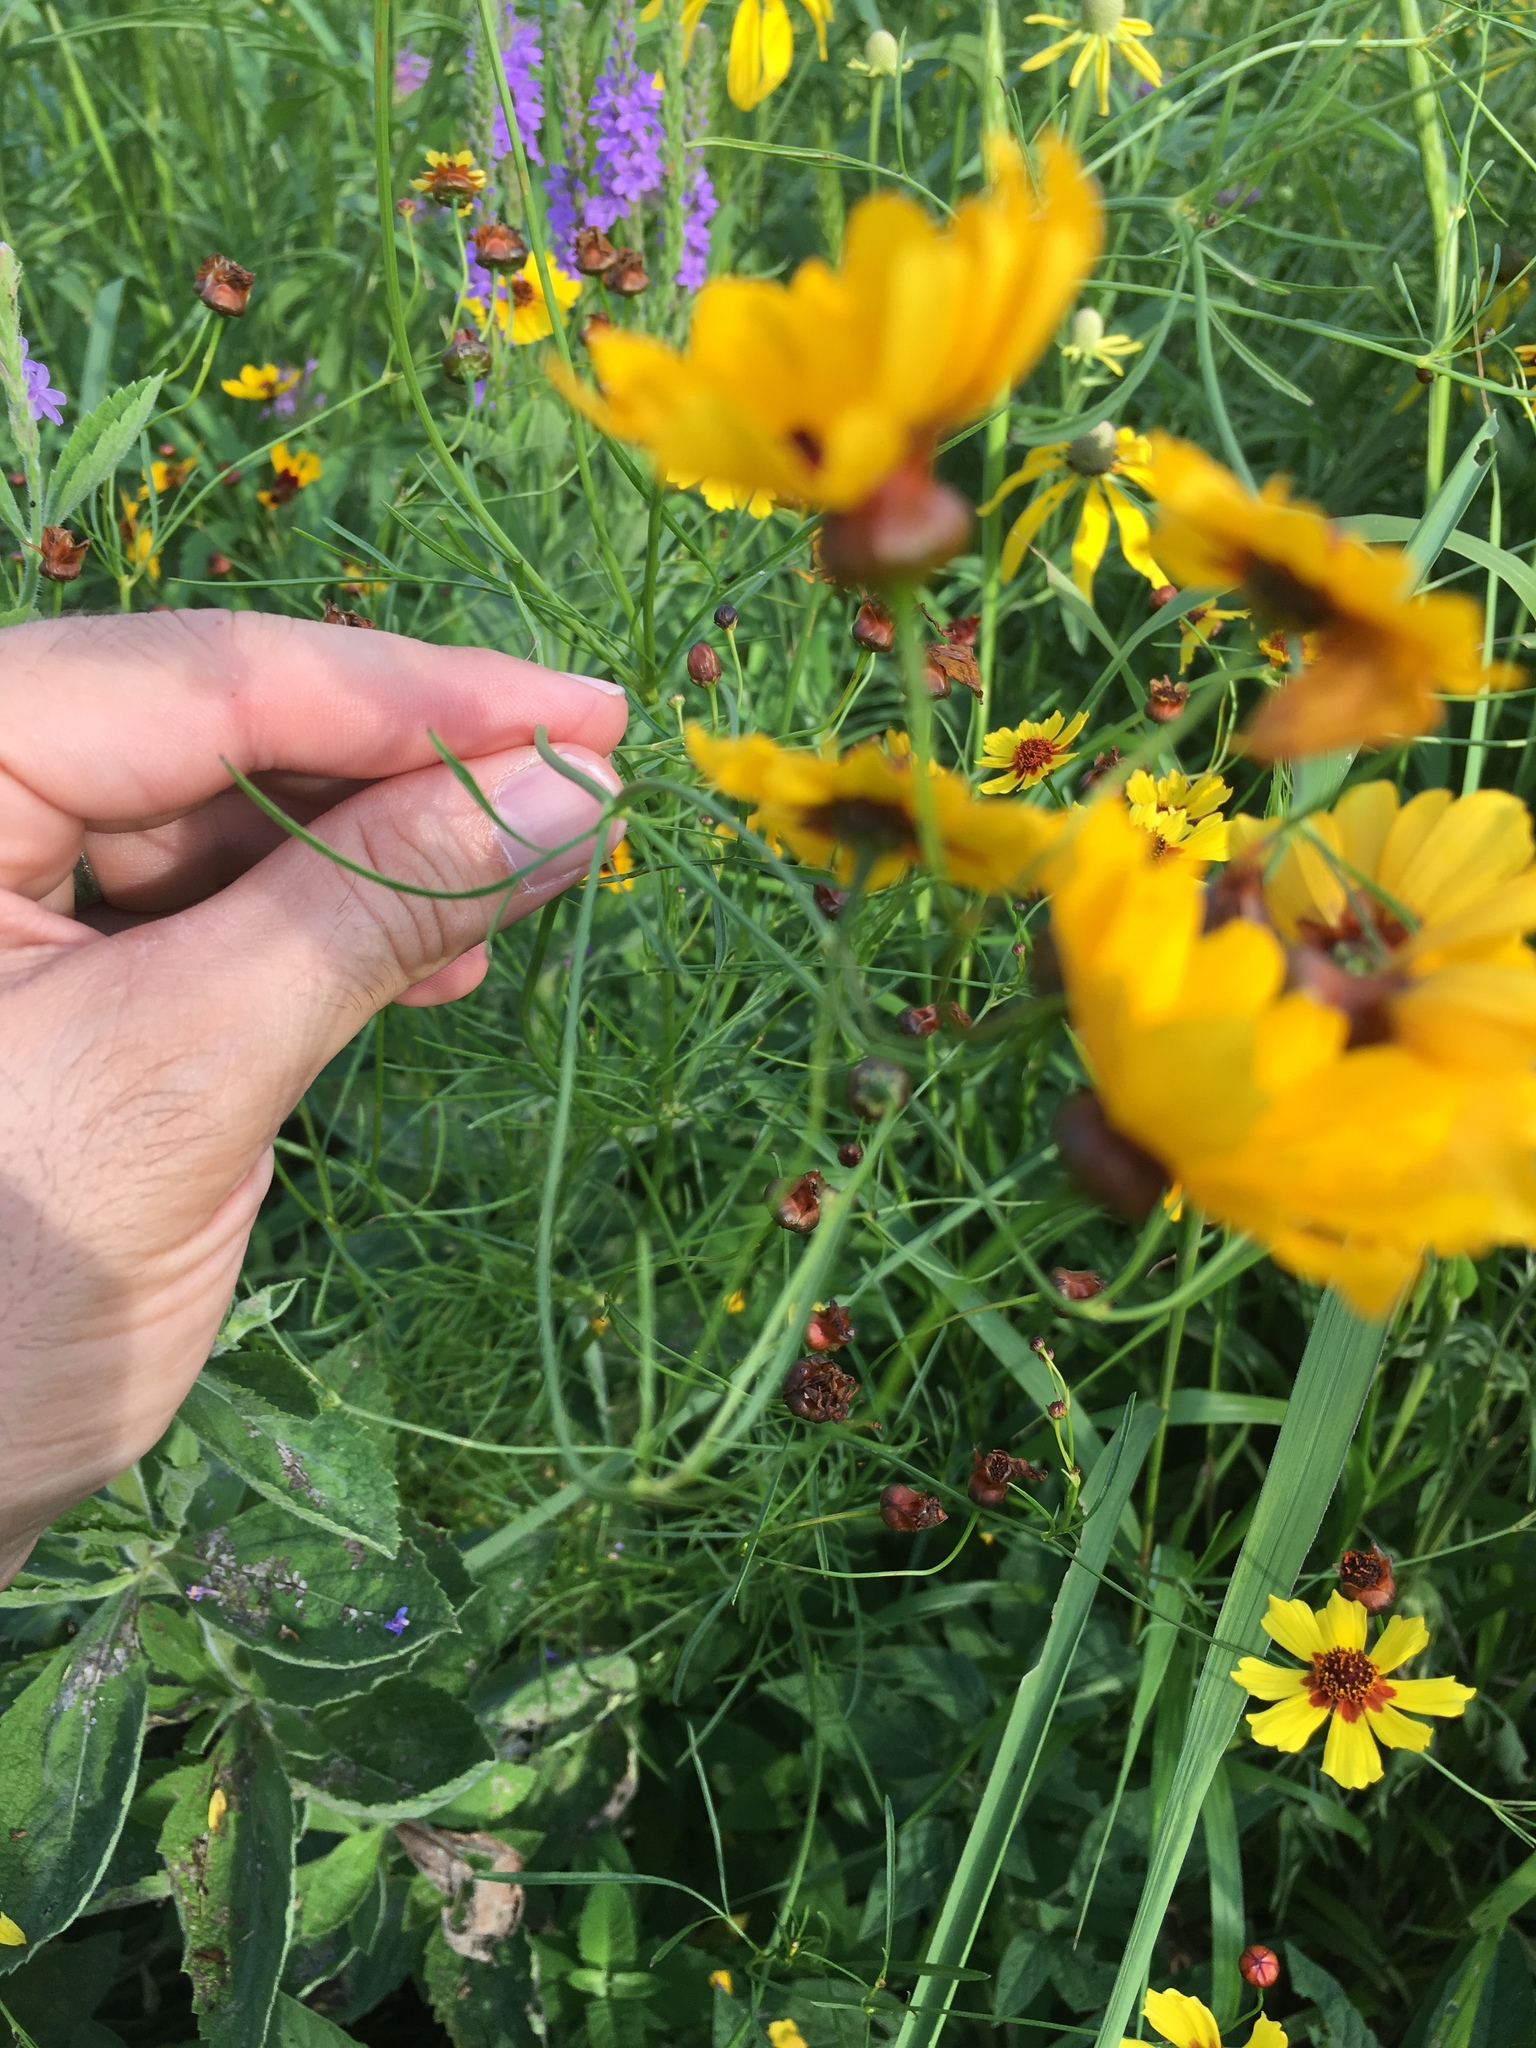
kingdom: Plantae
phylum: Tracheophyta
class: Magnoliopsida
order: Asterales
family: Asteraceae
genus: Coreopsis
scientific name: Coreopsis tinctoria
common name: Garden tickseed
